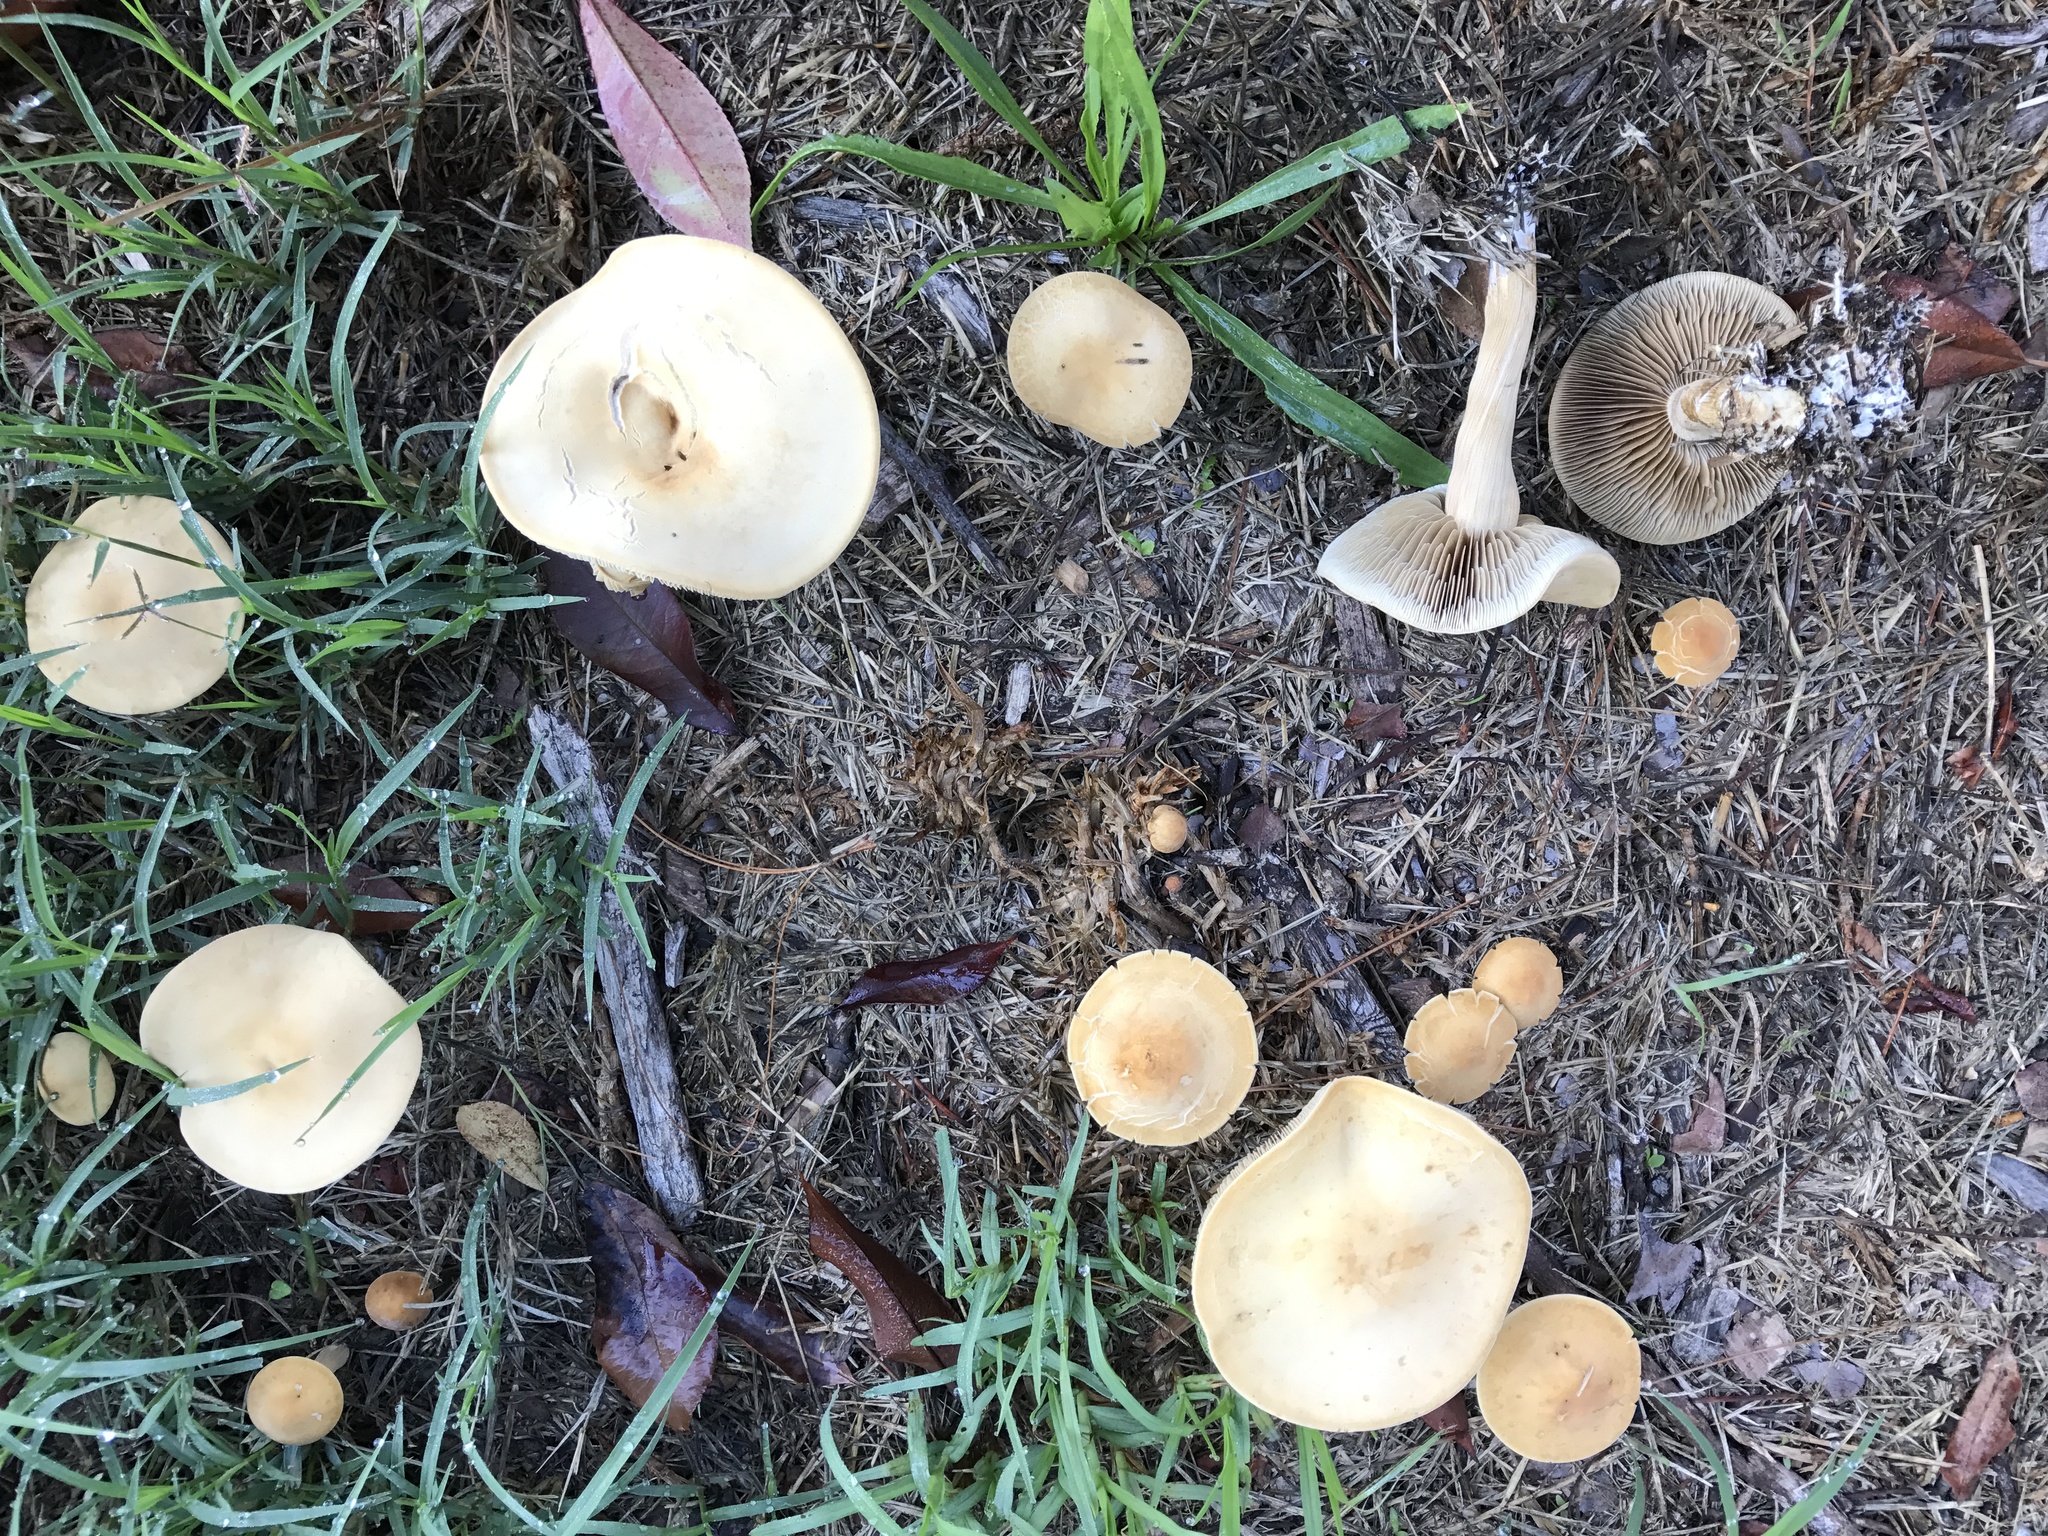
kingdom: Fungi
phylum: Basidiomycota
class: Agaricomycetes
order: Agaricales
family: Strophariaceae
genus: Agrocybe
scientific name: Agrocybe putaminum
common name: Mulch fieldcap
